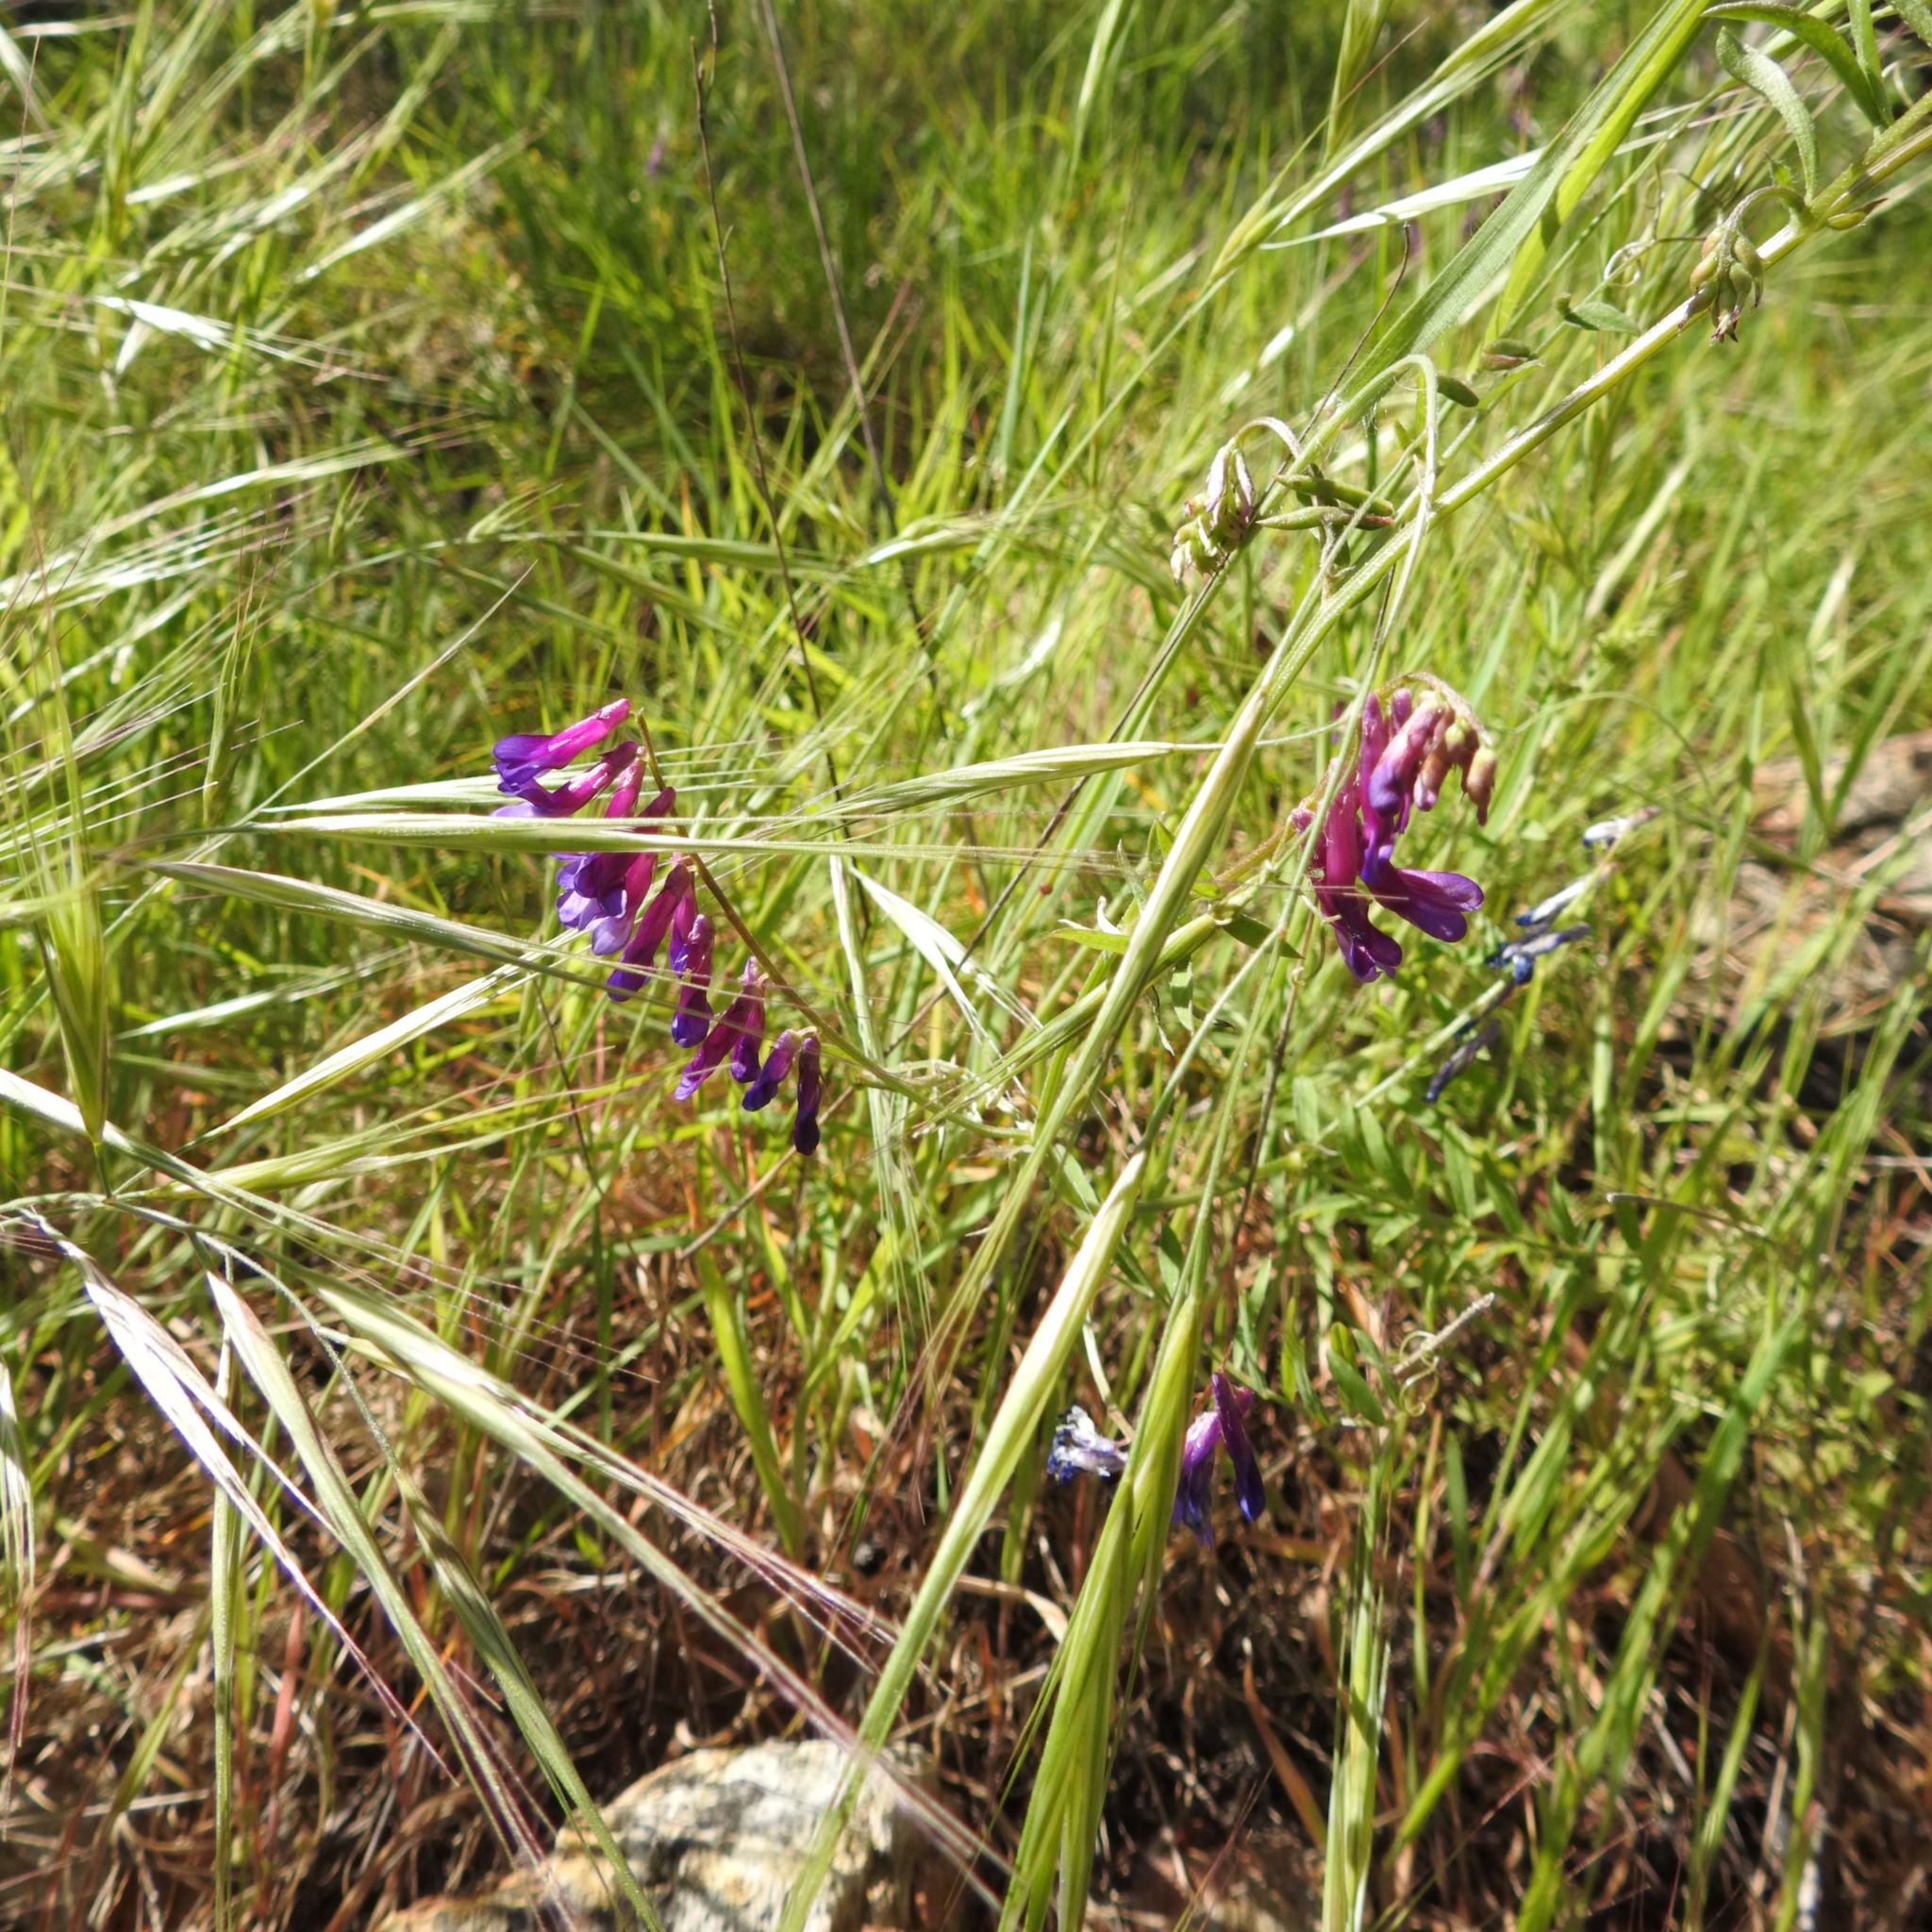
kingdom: Plantae
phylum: Tracheophyta
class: Magnoliopsida
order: Fabales
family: Fabaceae
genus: Vicia
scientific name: Vicia villosa
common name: Fodder vetch
